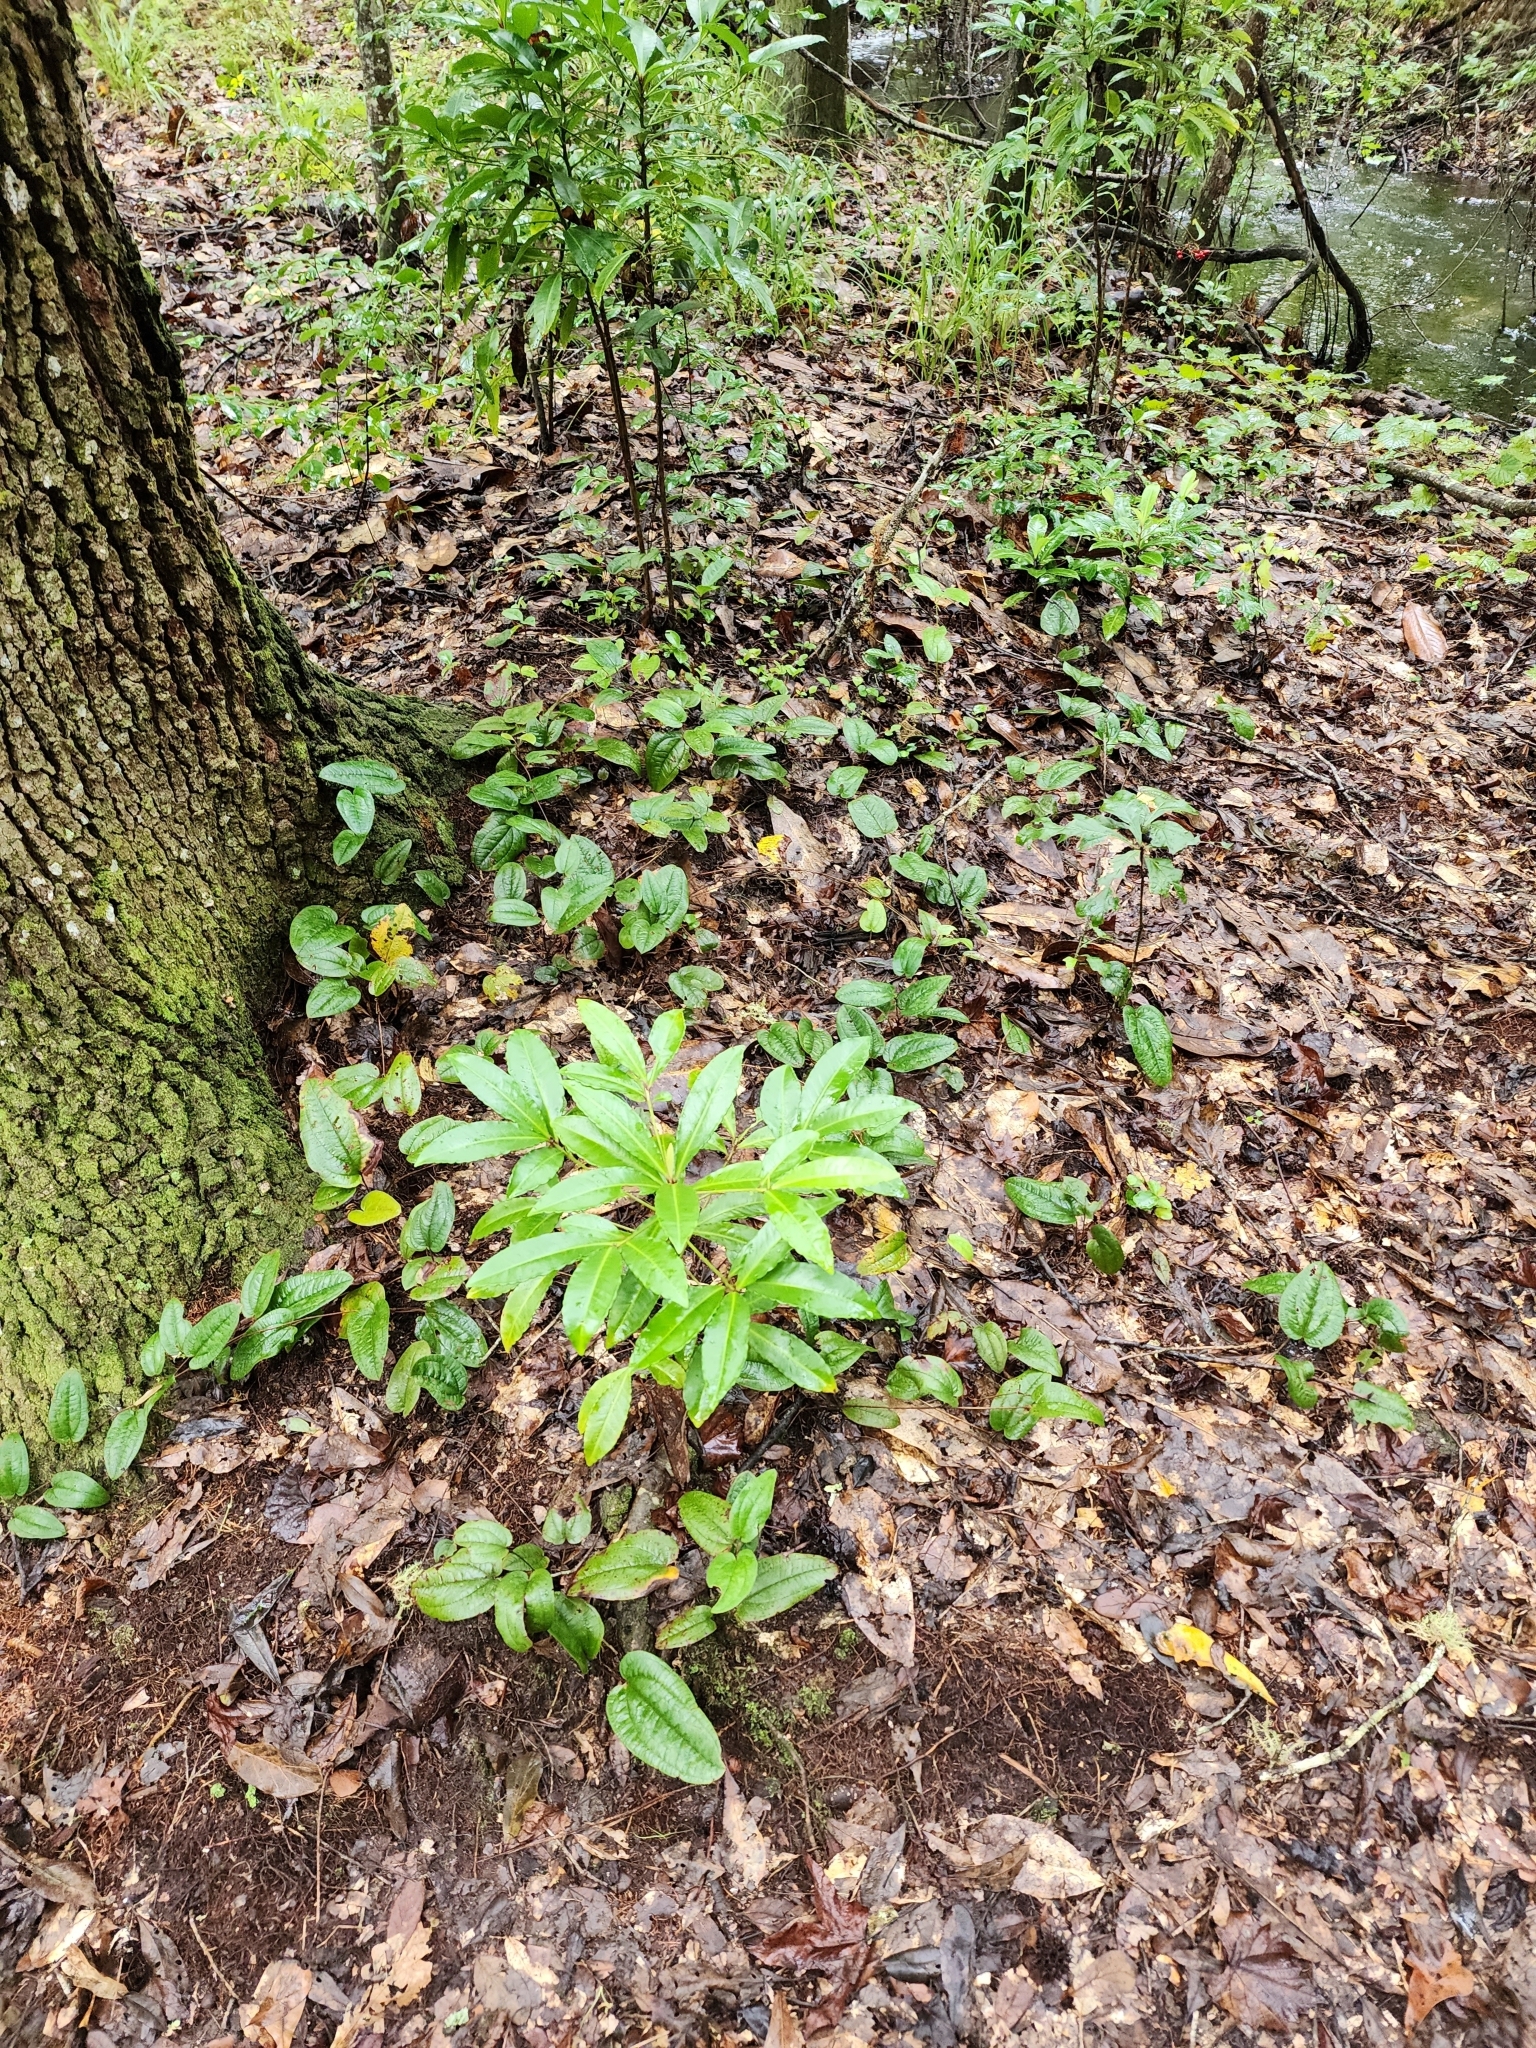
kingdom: Plantae
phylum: Tracheophyta
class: Liliopsida
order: Liliales
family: Smilacaceae
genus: Smilax
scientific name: Smilax pumila
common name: Sarsaparilla-vine
